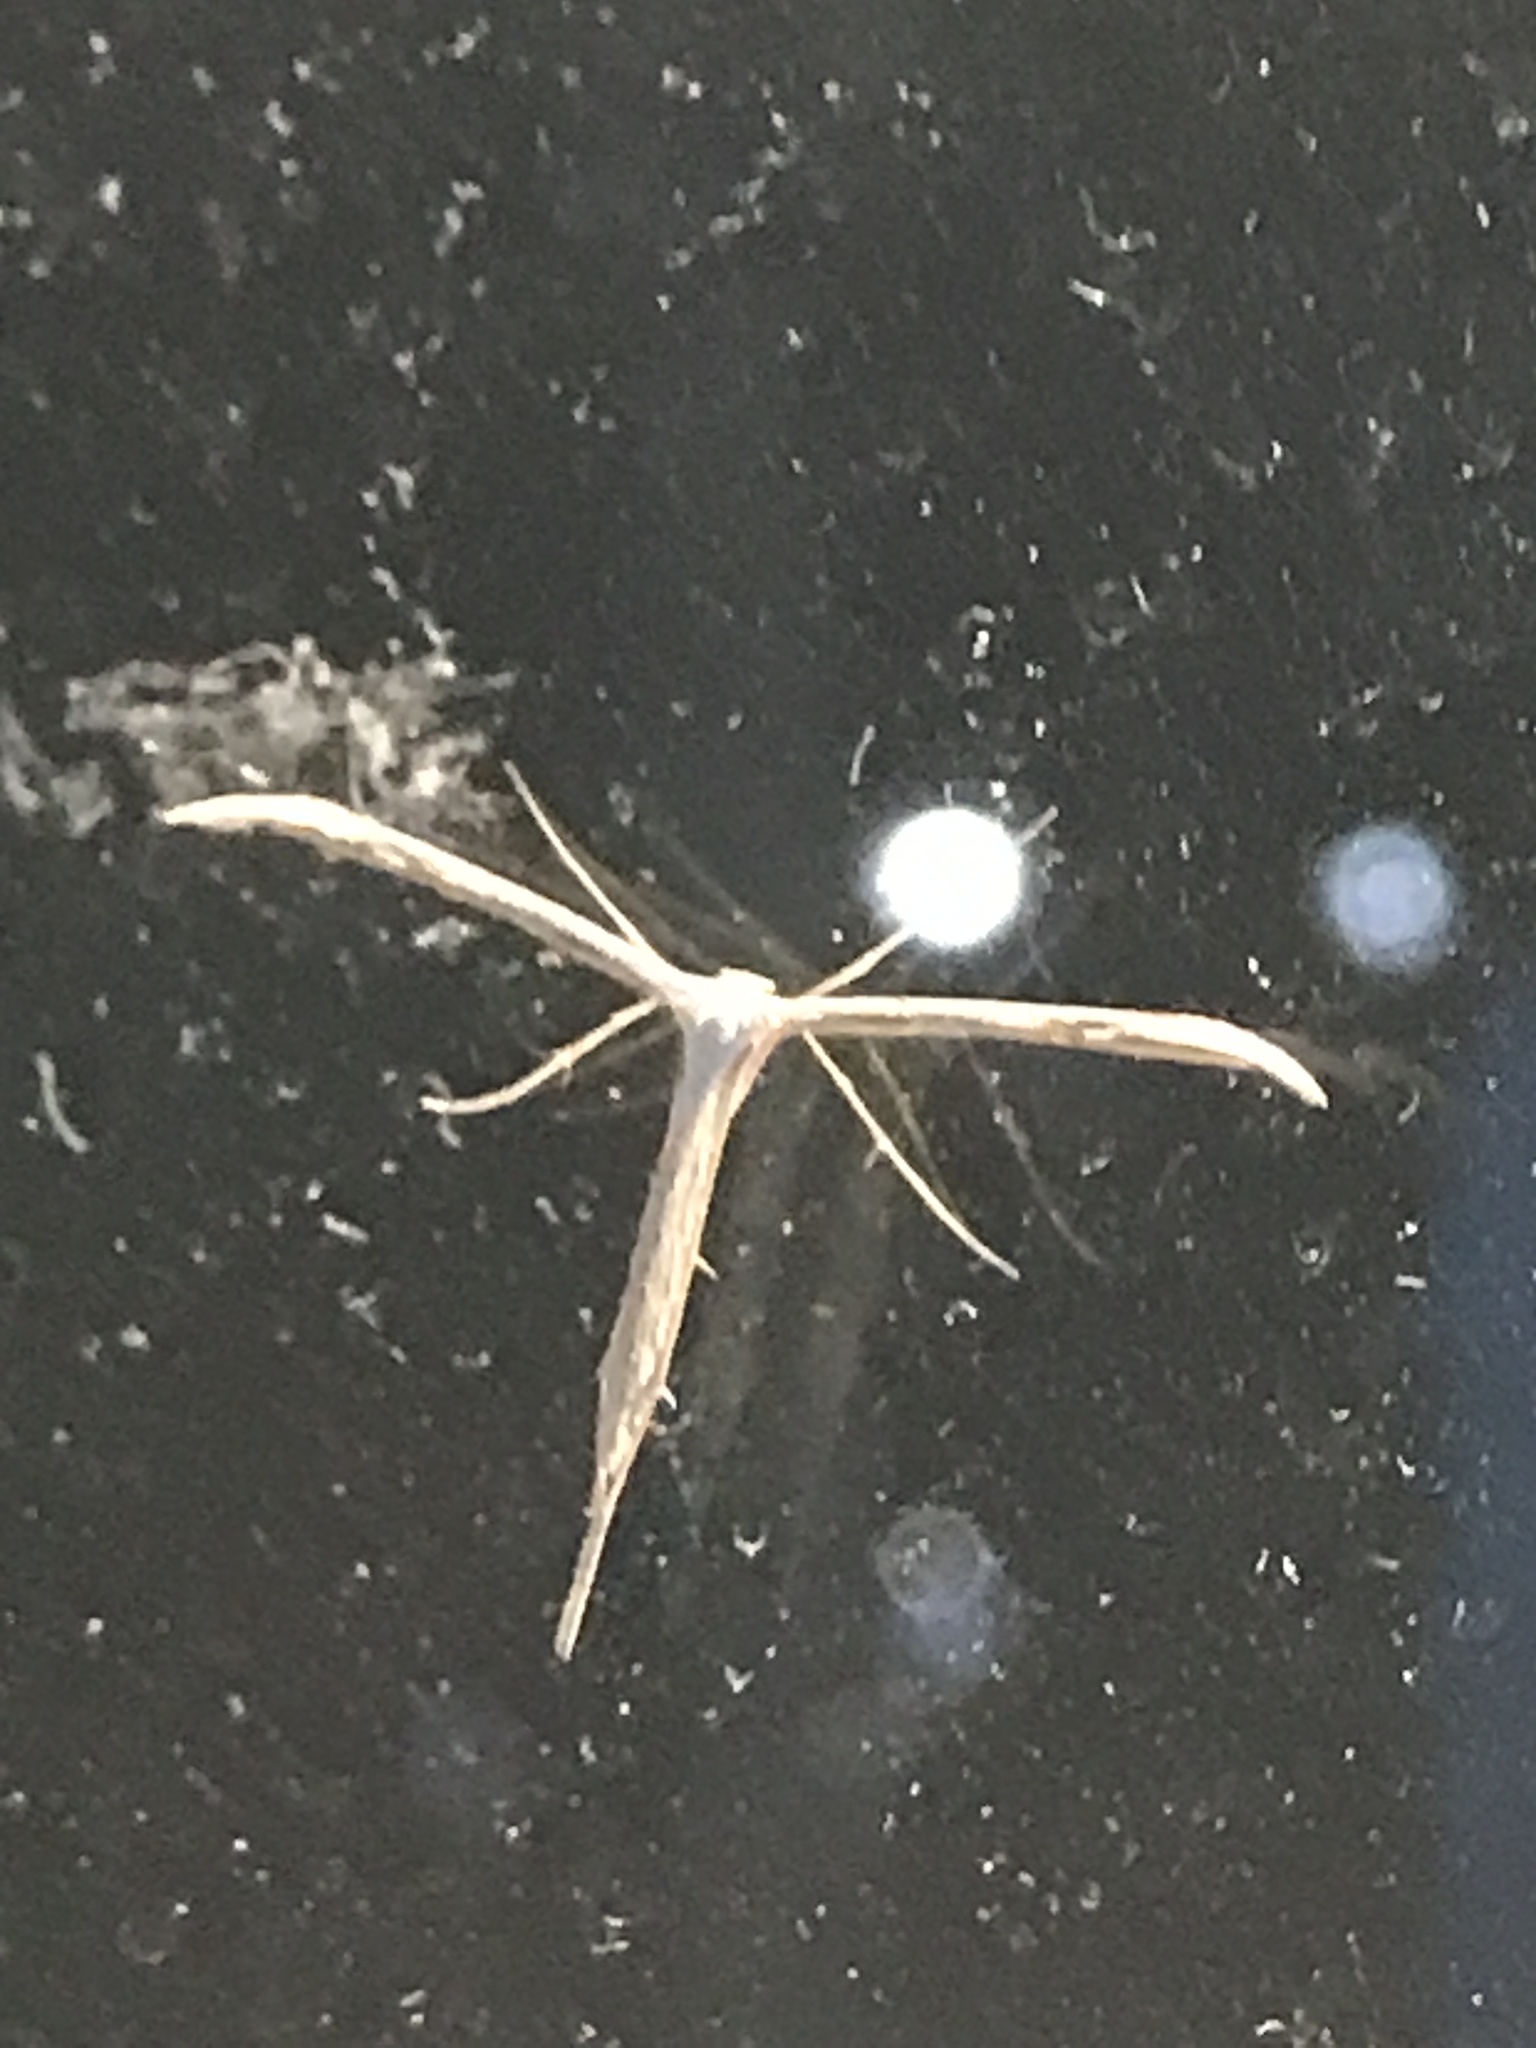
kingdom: Animalia
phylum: Arthropoda
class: Insecta
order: Lepidoptera
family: Pterophoridae
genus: Emmelina
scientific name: Emmelina monodactyla
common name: Common plume
